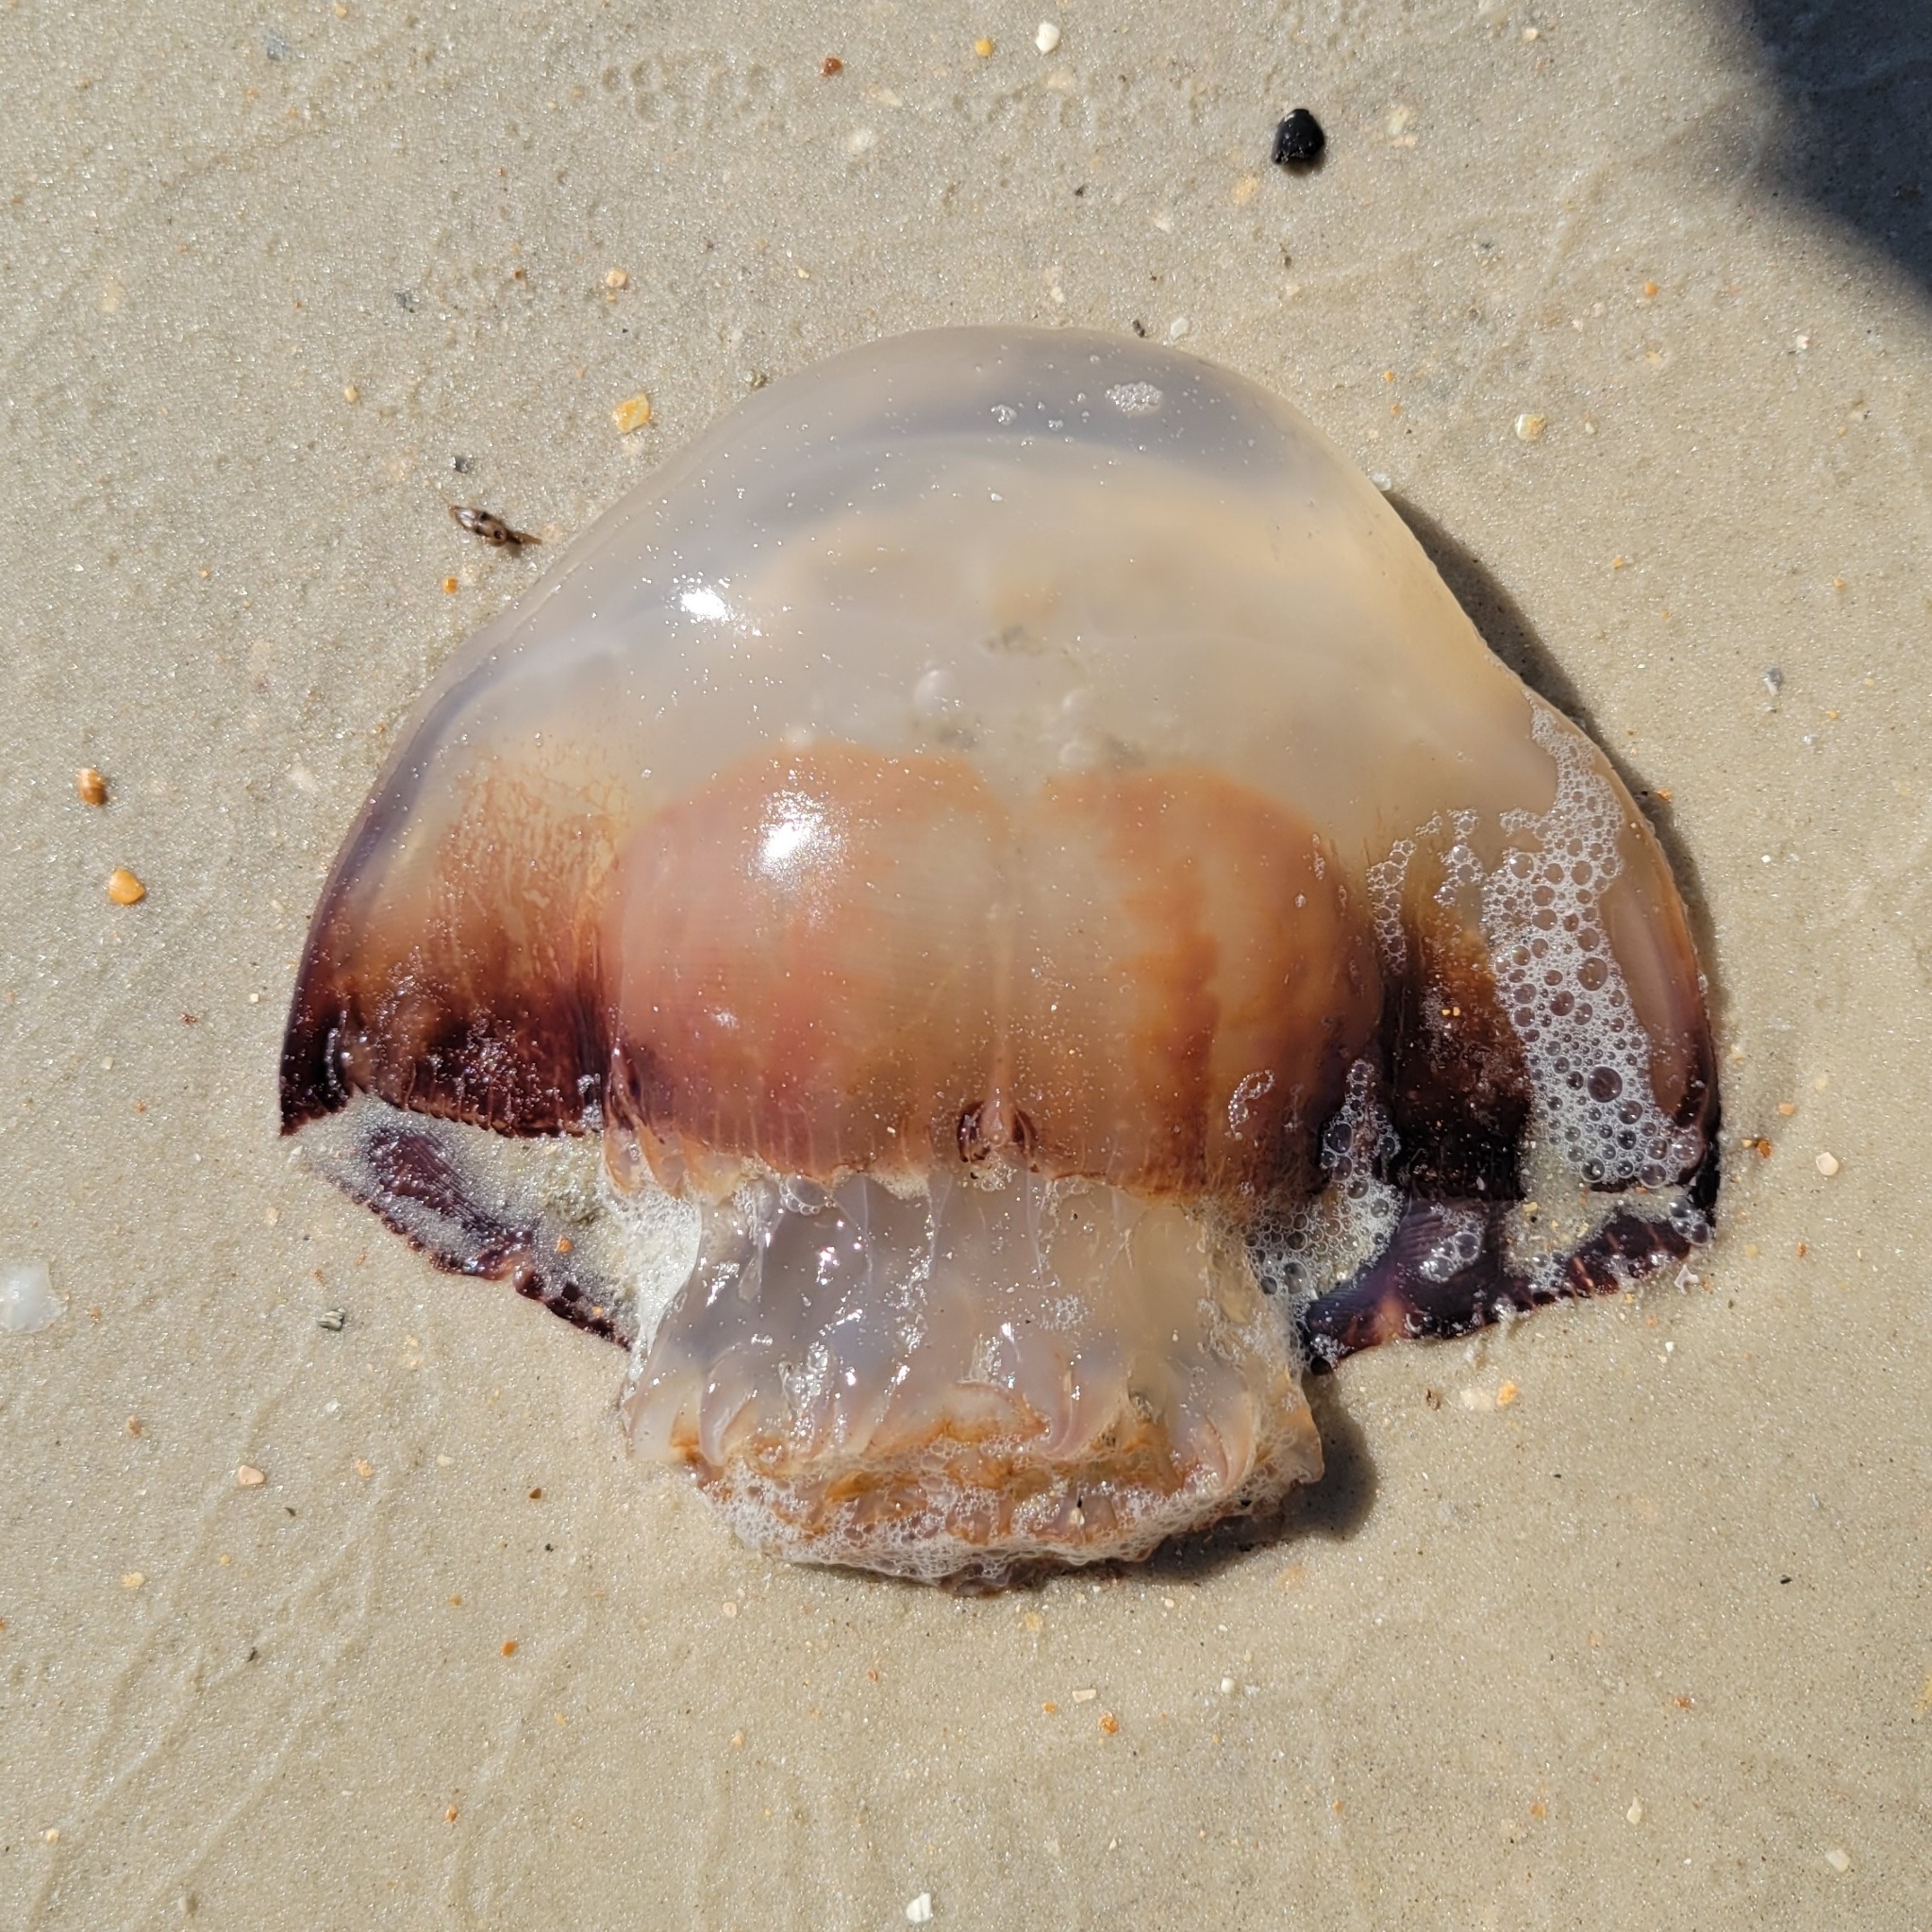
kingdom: Animalia
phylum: Cnidaria
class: Scyphozoa
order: Rhizostomeae
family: Stomolophidae
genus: Stomolophus
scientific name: Stomolophus meleagris
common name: Cabbagehead
